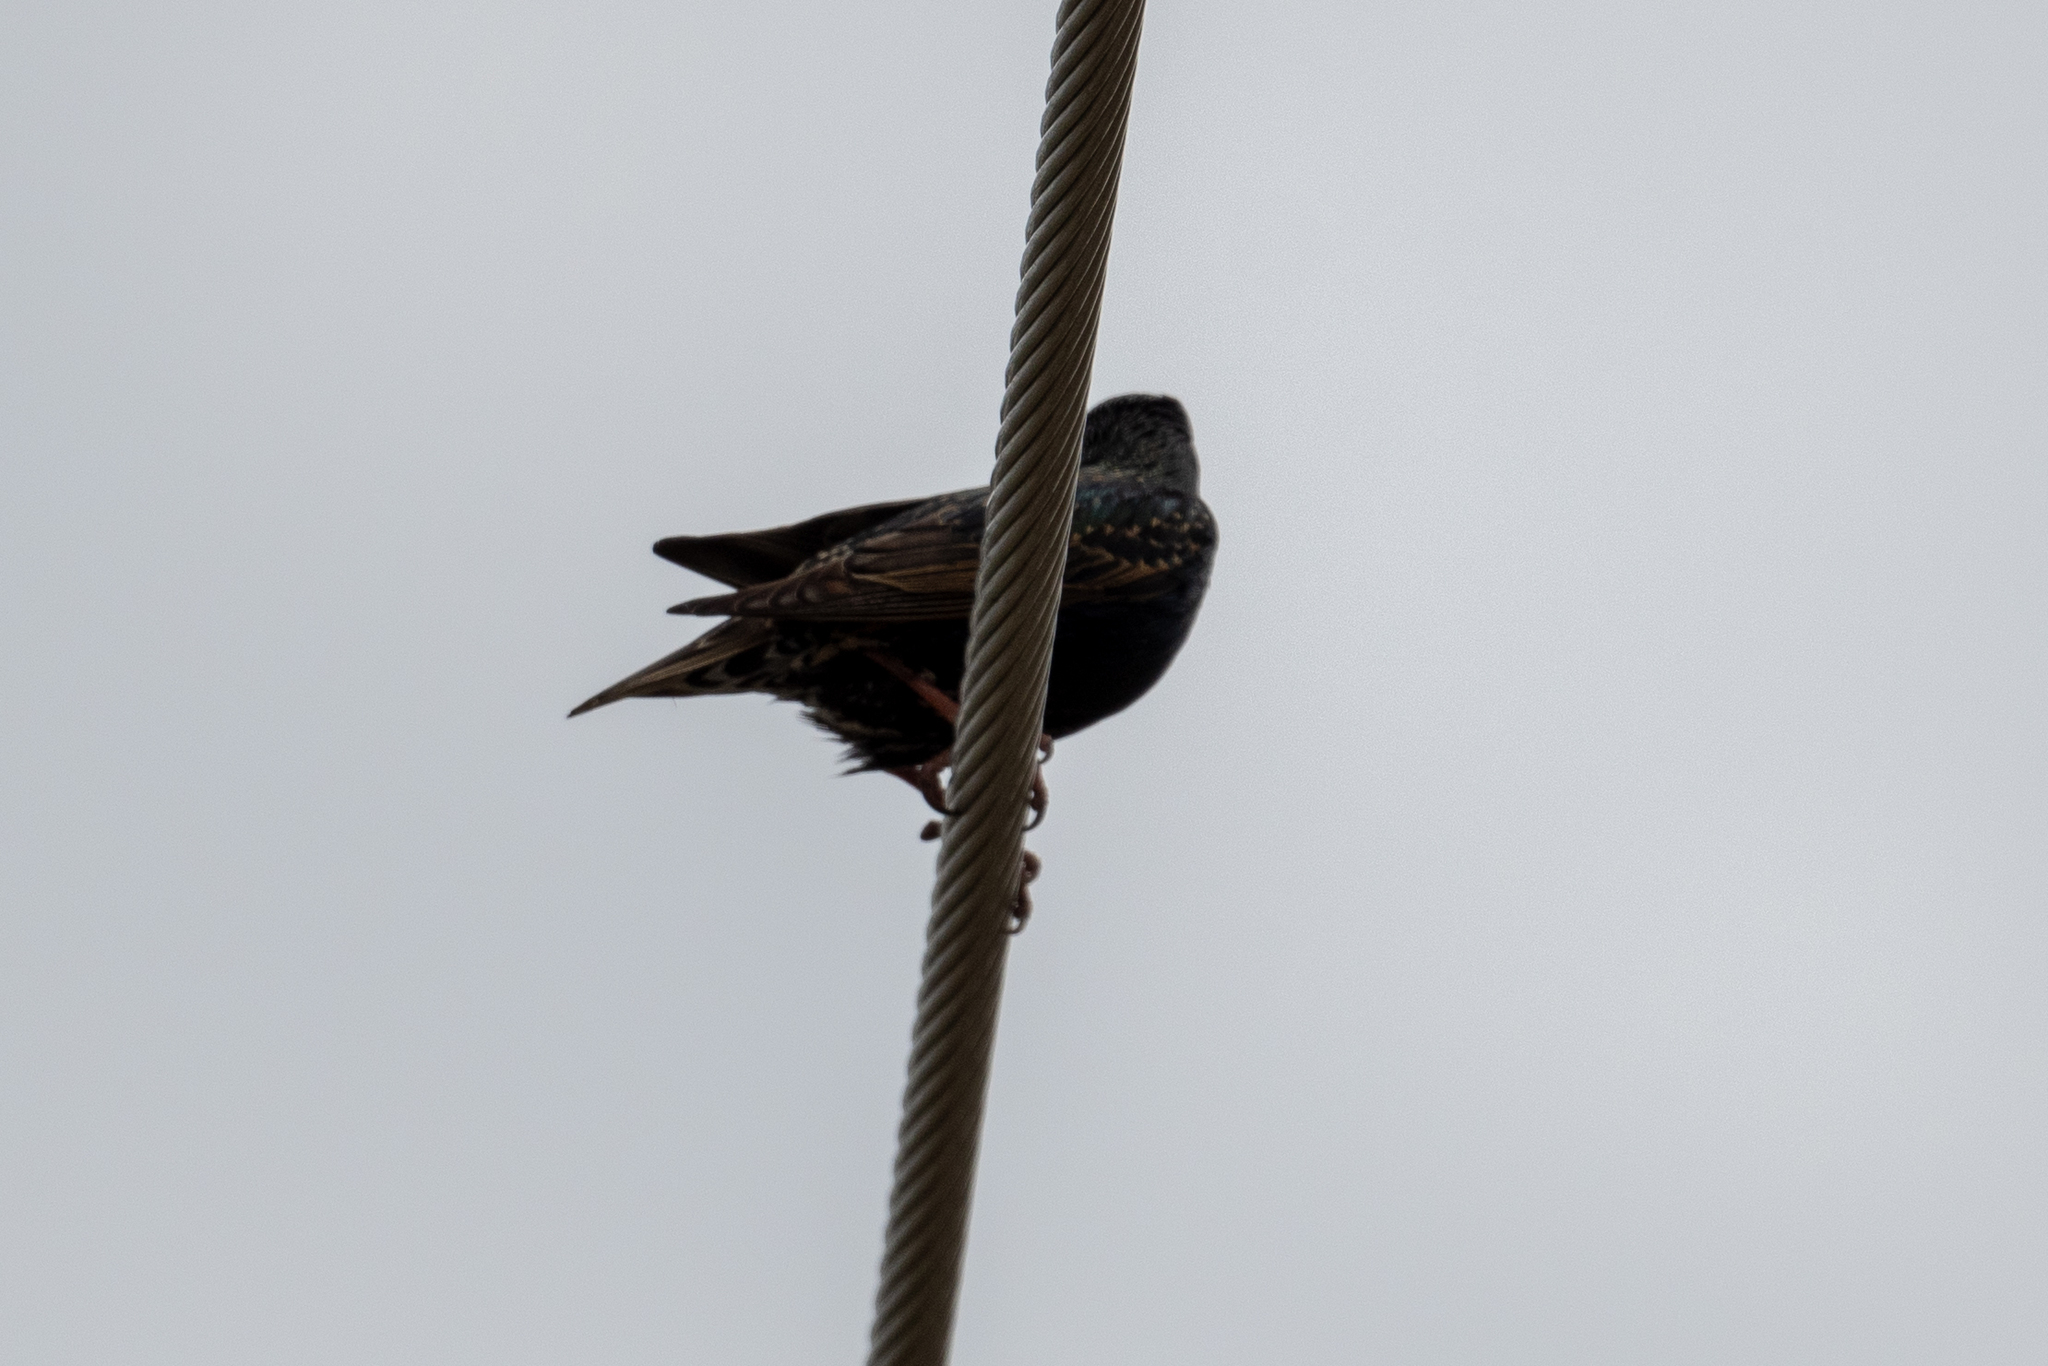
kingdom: Animalia
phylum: Chordata
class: Aves
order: Passeriformes
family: Sturnidae
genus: Sturnus
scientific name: Sturnus vulgaris
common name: Common starling
